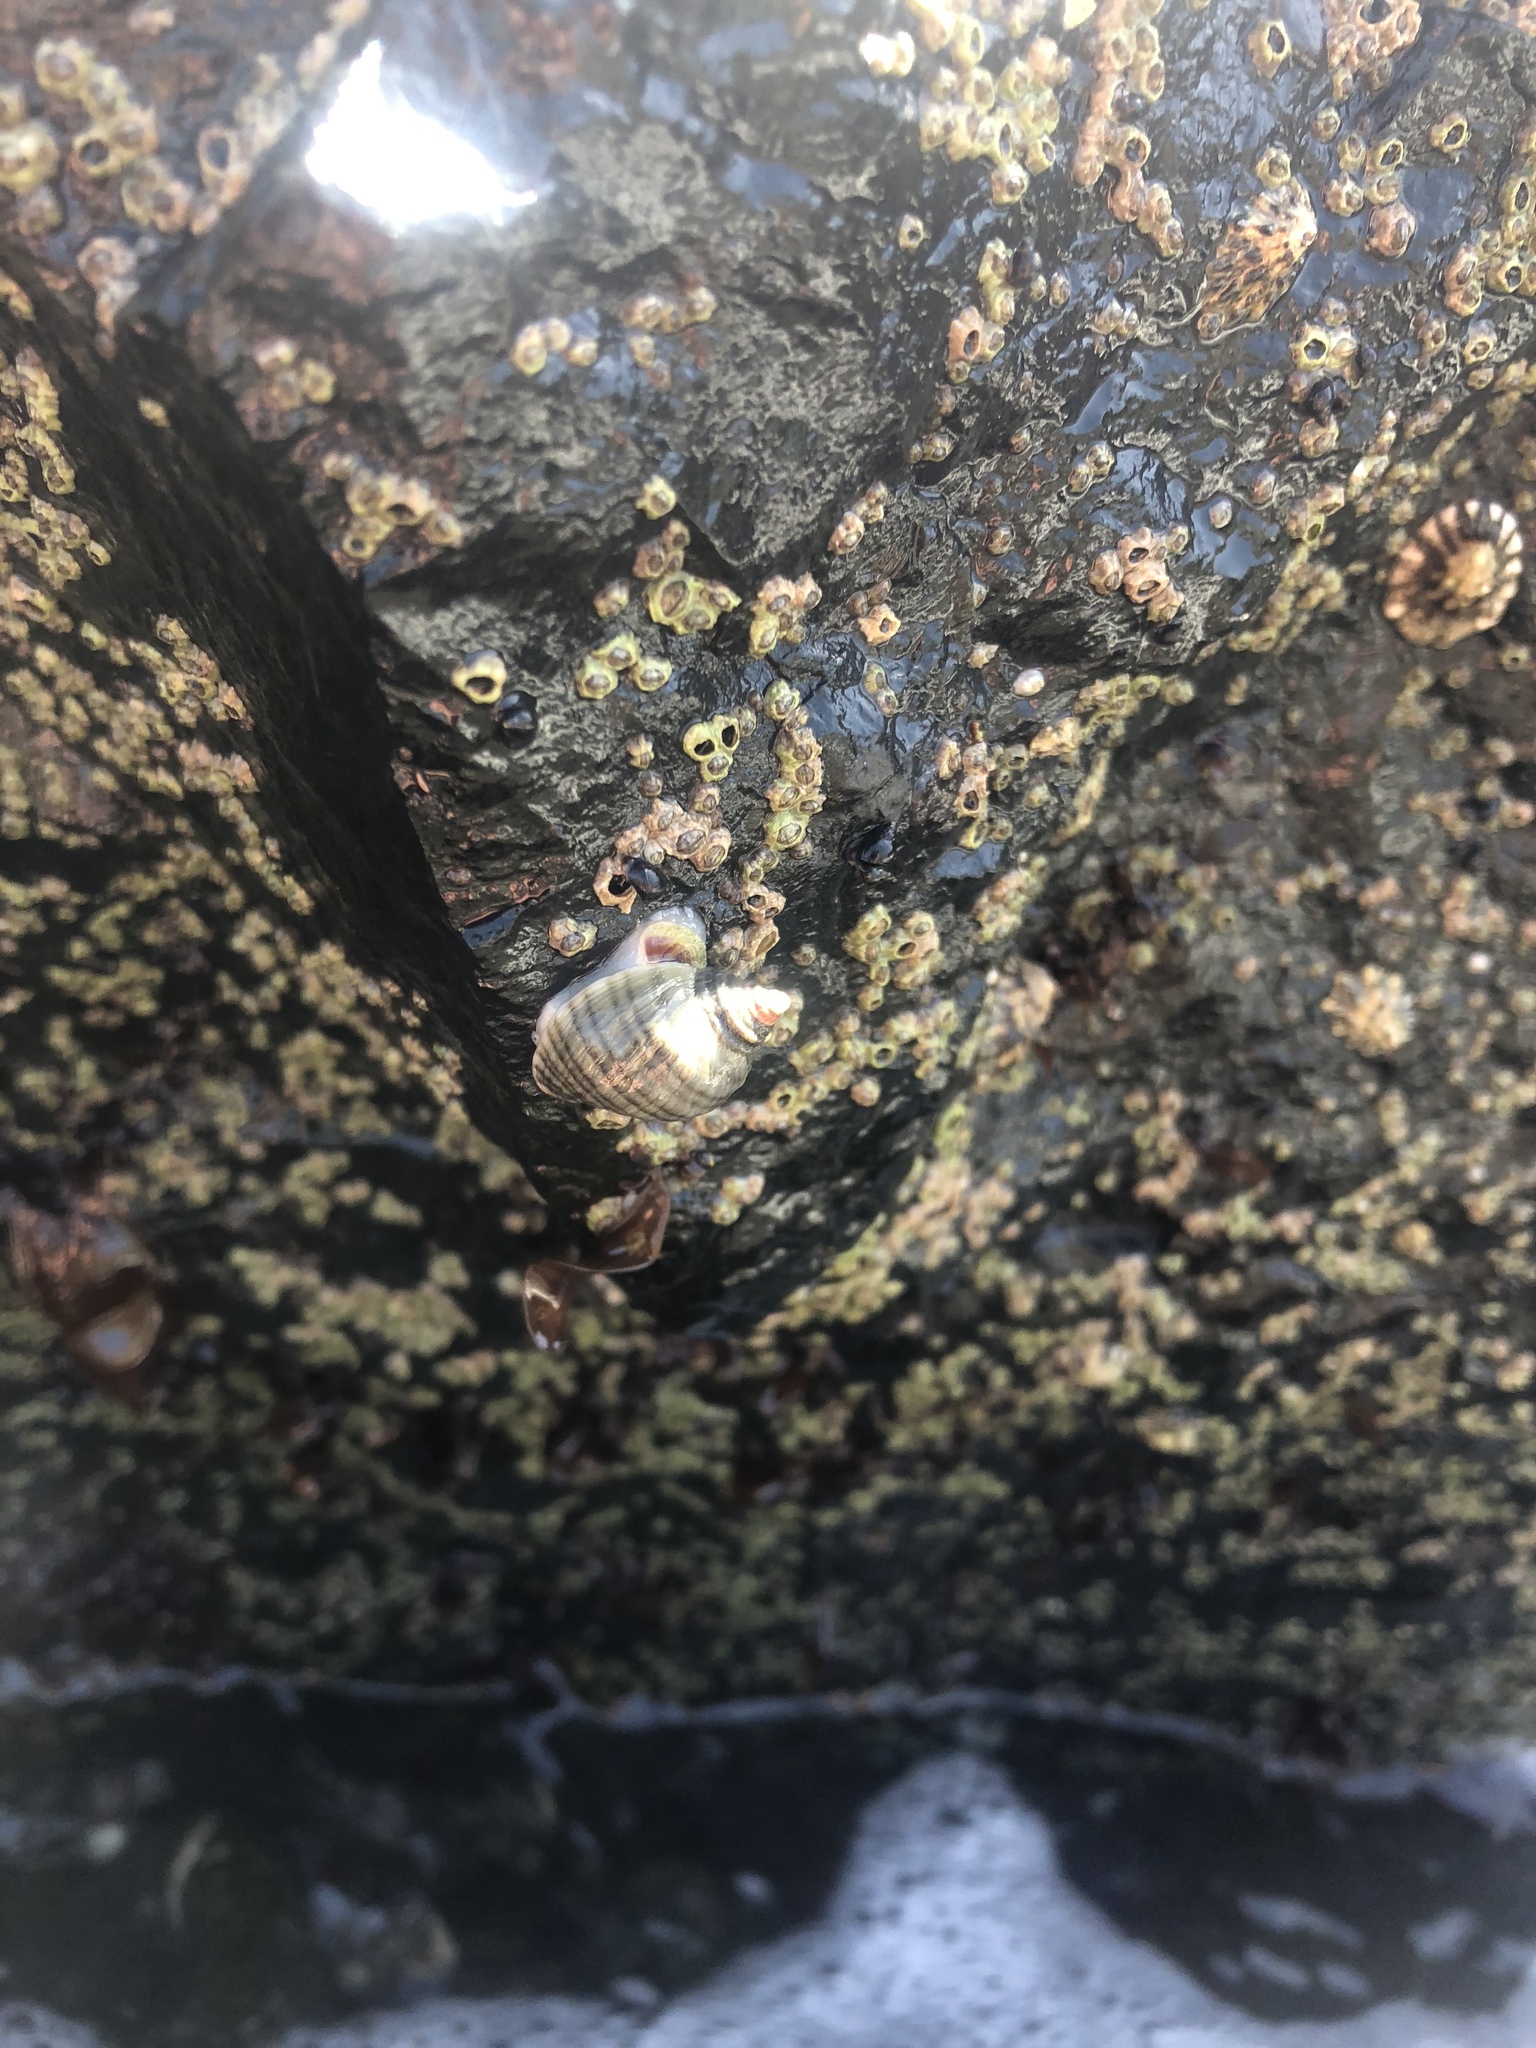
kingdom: Animalia
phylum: Mollusca
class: Gastropoda
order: Neogastropoda
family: Muricidae
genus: Nucella
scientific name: Nucella ostrina
